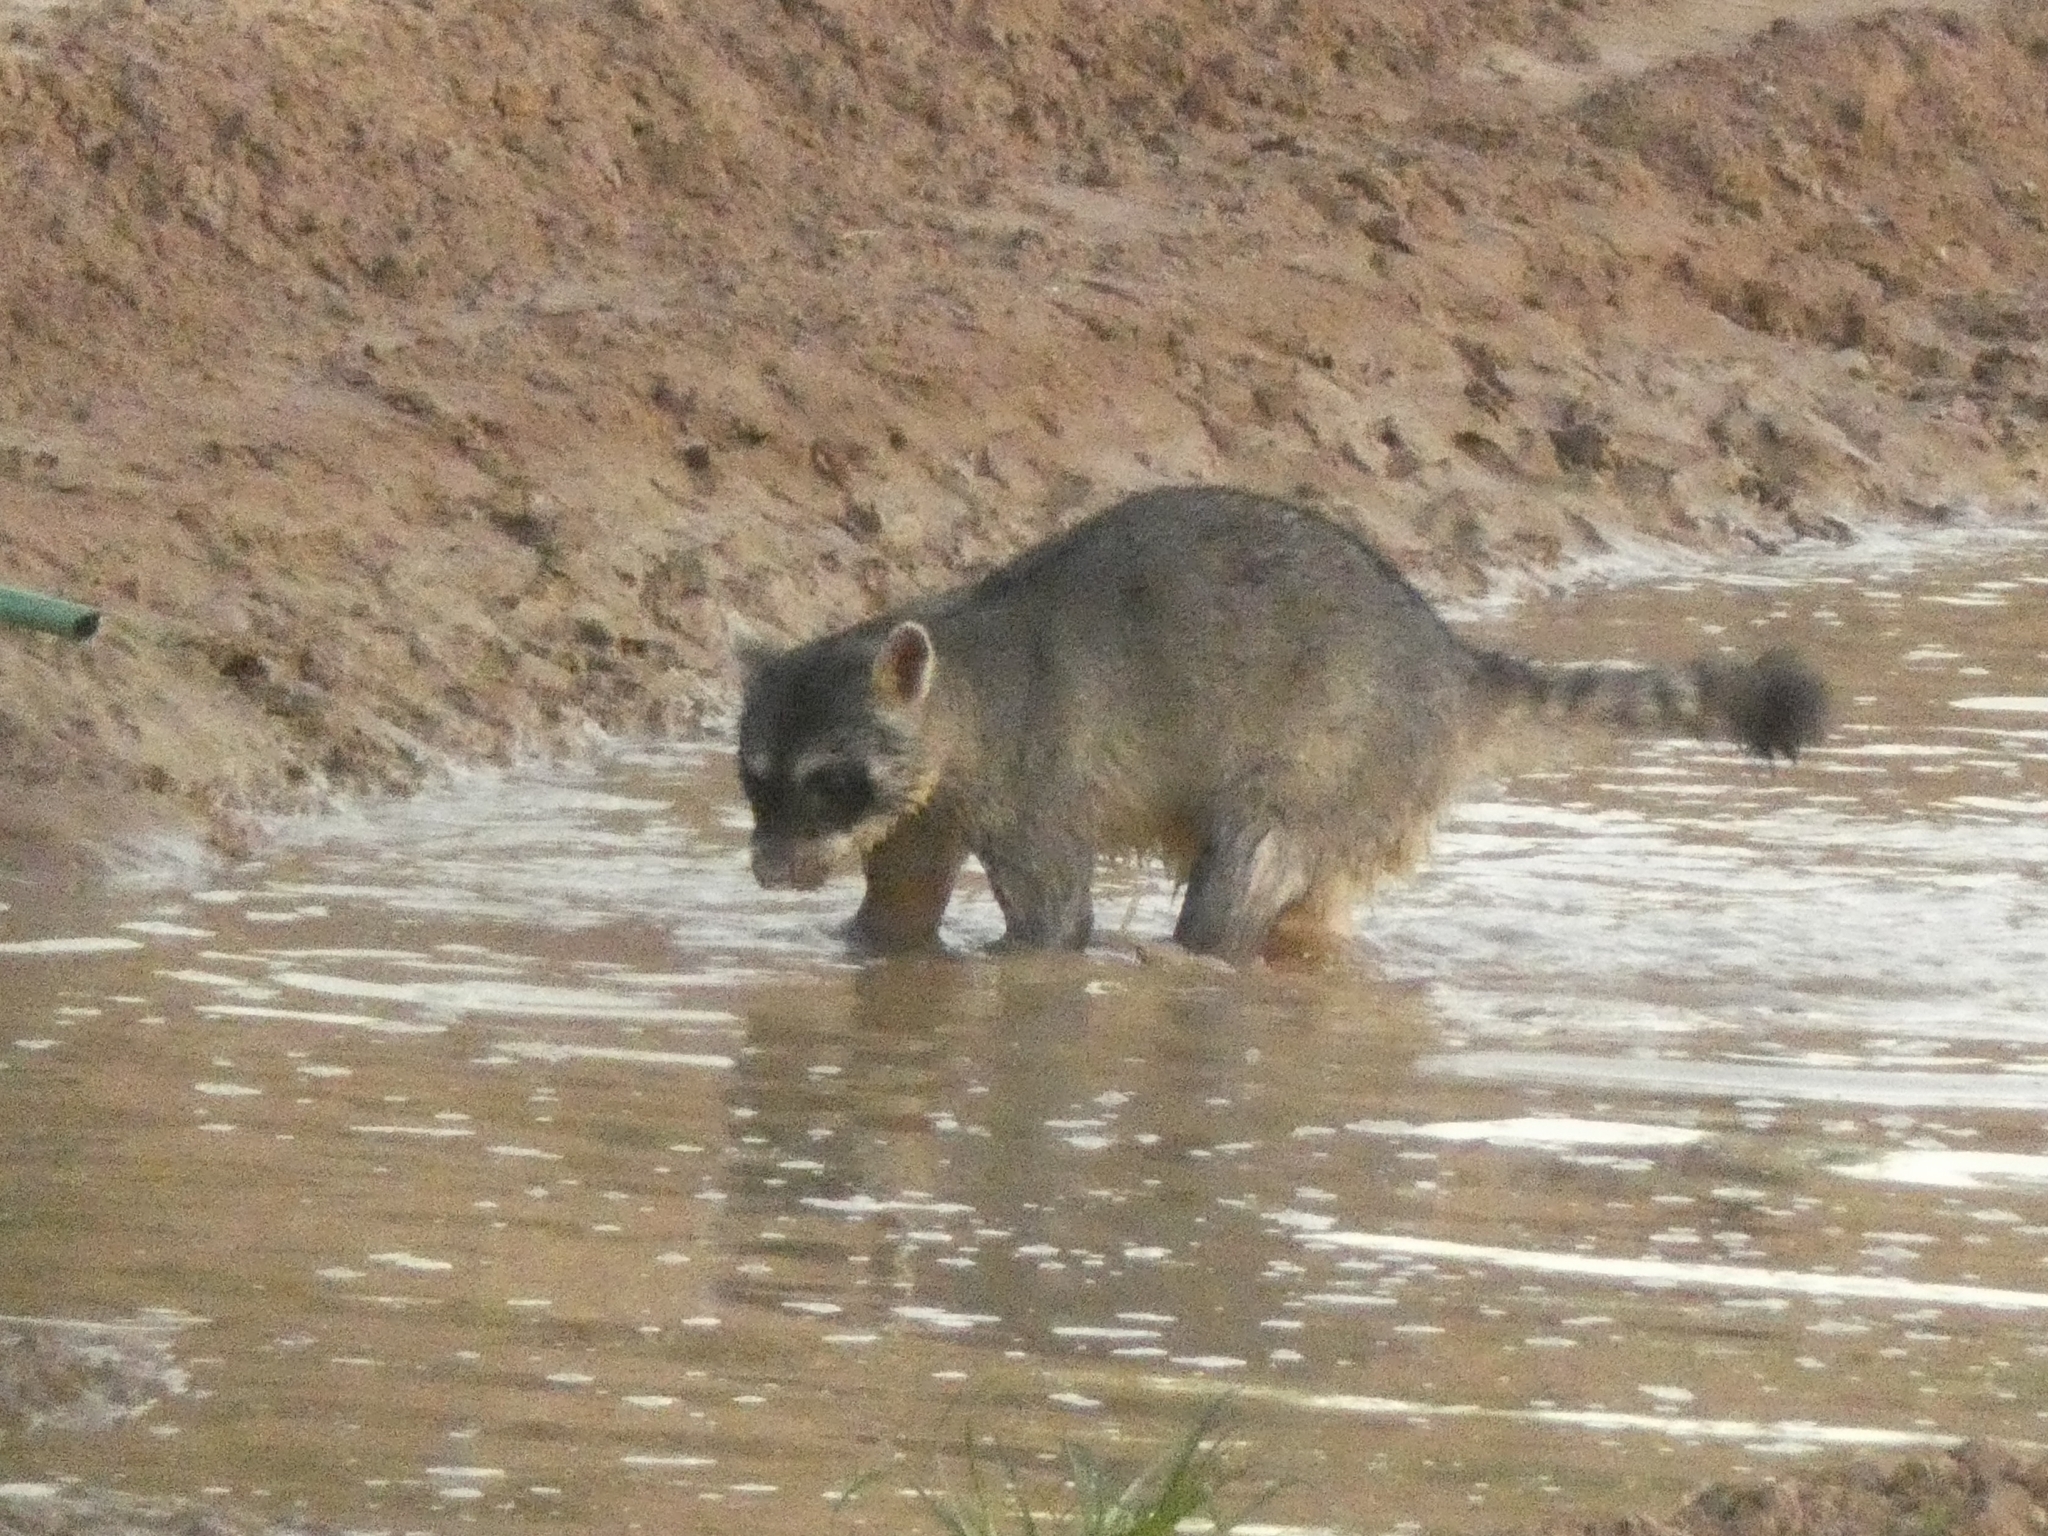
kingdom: Animalia
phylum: Chordata
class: Mammalia
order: Carnivora
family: Procyonidae
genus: Procyon
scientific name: Procyon cancrivorus
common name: Crab-eating raccoon
